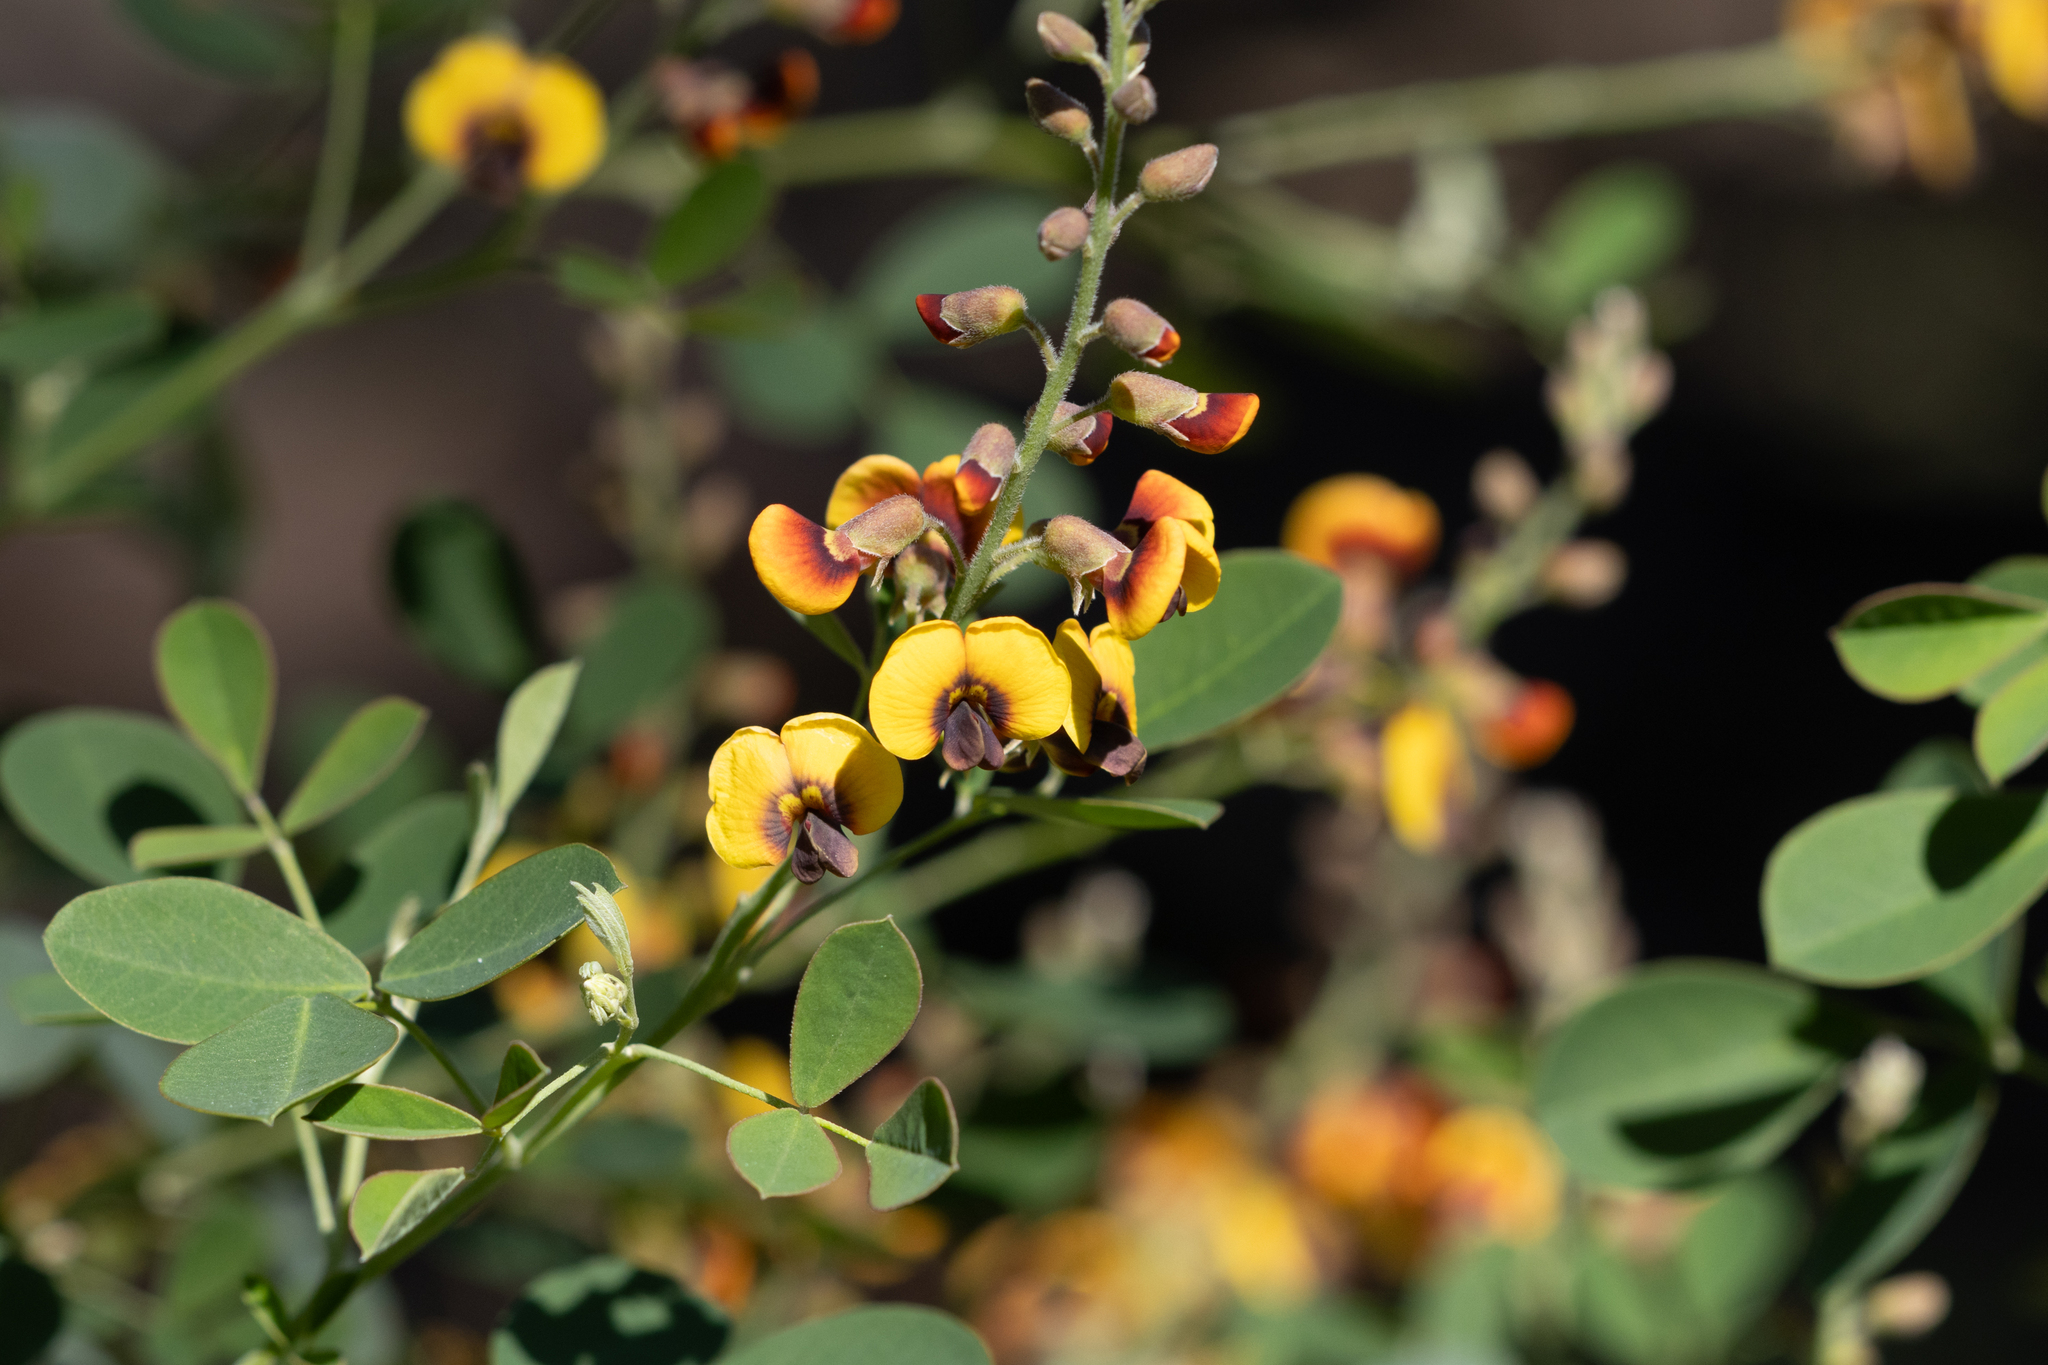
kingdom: Plantae
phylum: Tracheophyta
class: Magnoliopsida
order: Fabales
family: Fabaceae
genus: Goodia
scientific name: Goodia medicaginea
